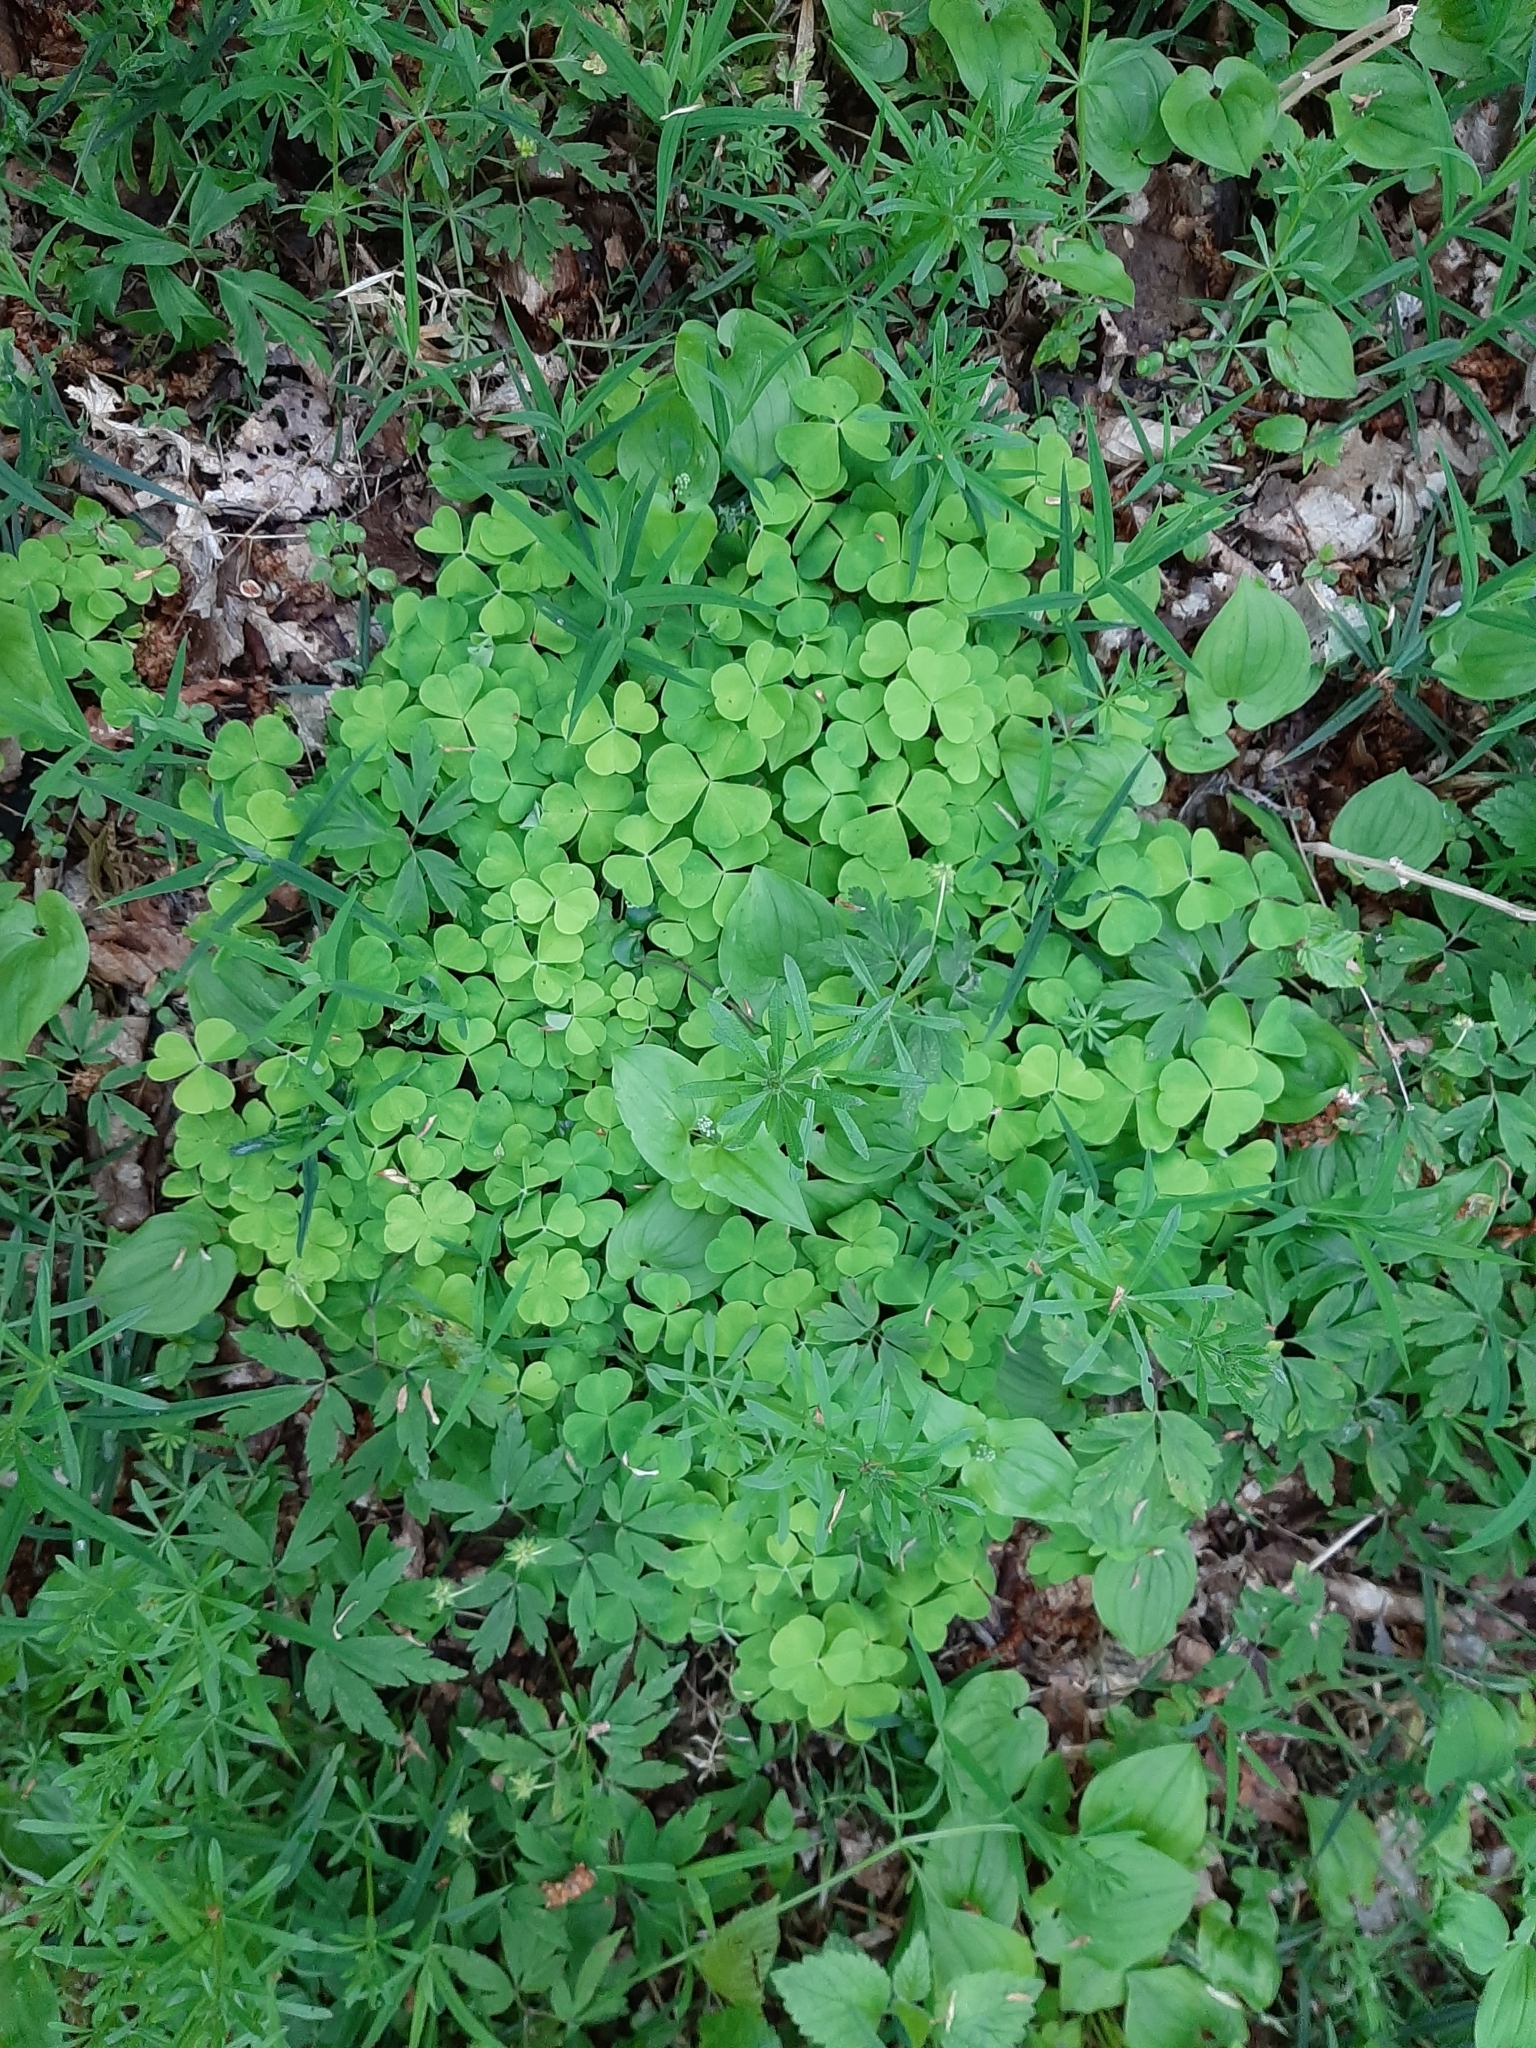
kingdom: Plantae
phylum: Tracheophyta
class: Magnoliopsida
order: Oxalidales
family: Oxalidaceae
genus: Oxalis
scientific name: Oxalis acetosella
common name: Wood-sorrel
